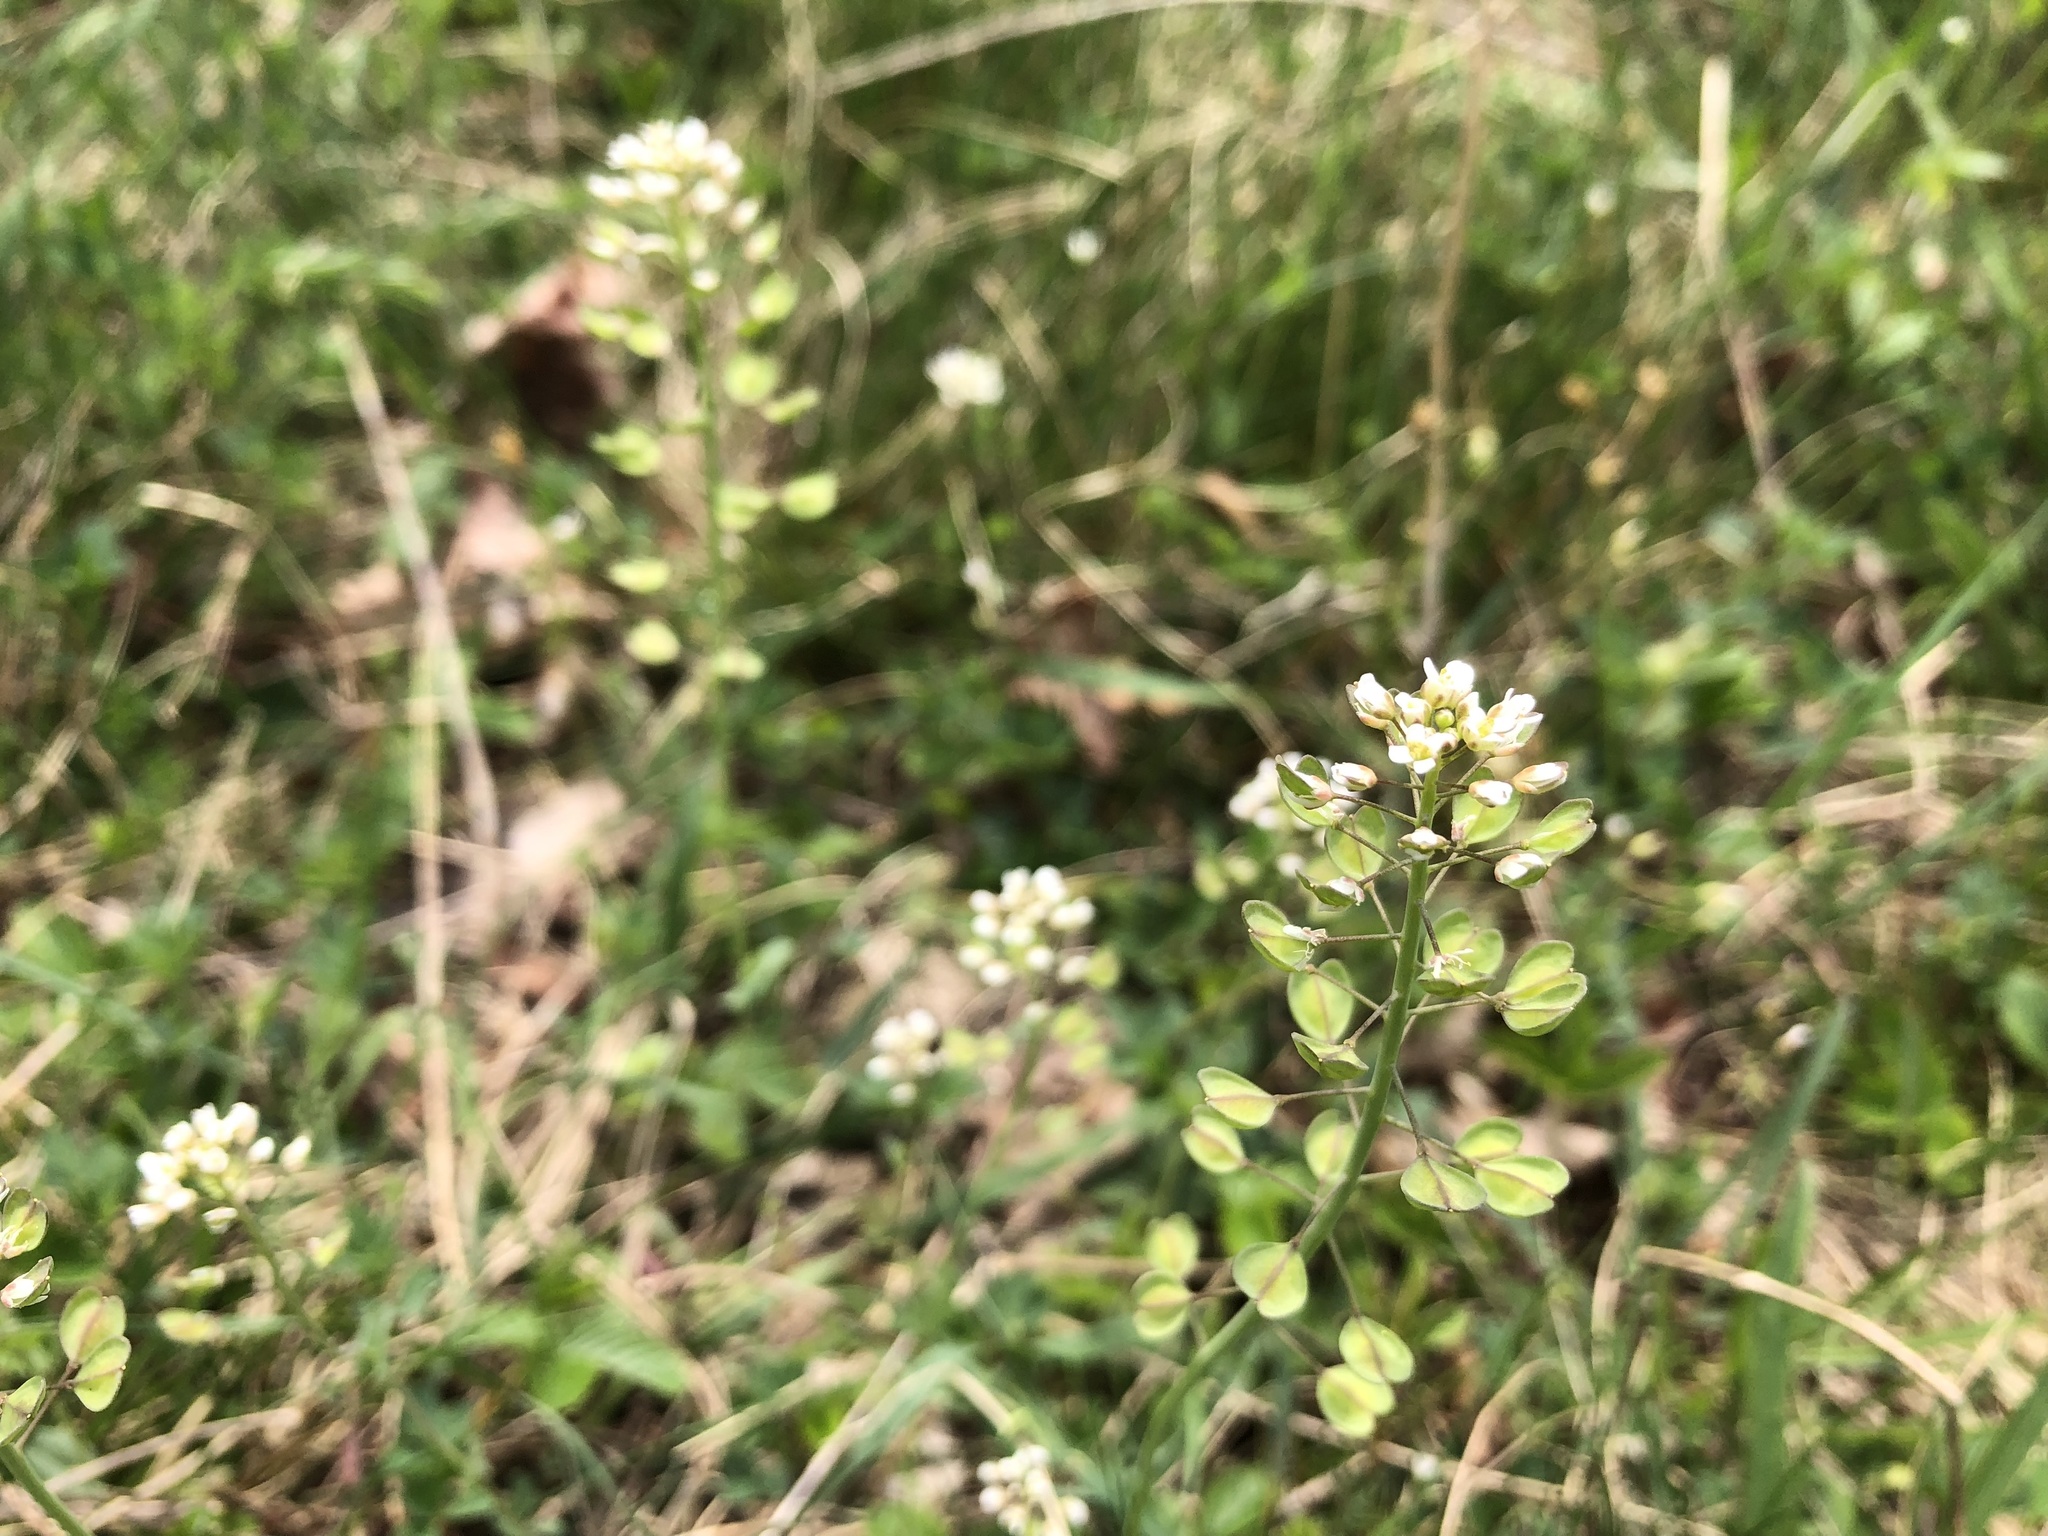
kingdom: Plantae
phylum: Tracheophyta
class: Magnoliopsida
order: Brassicales
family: Brassicaceae
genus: Noccaea
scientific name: Noccaea perfoliata
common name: Perfoliate pennycress
